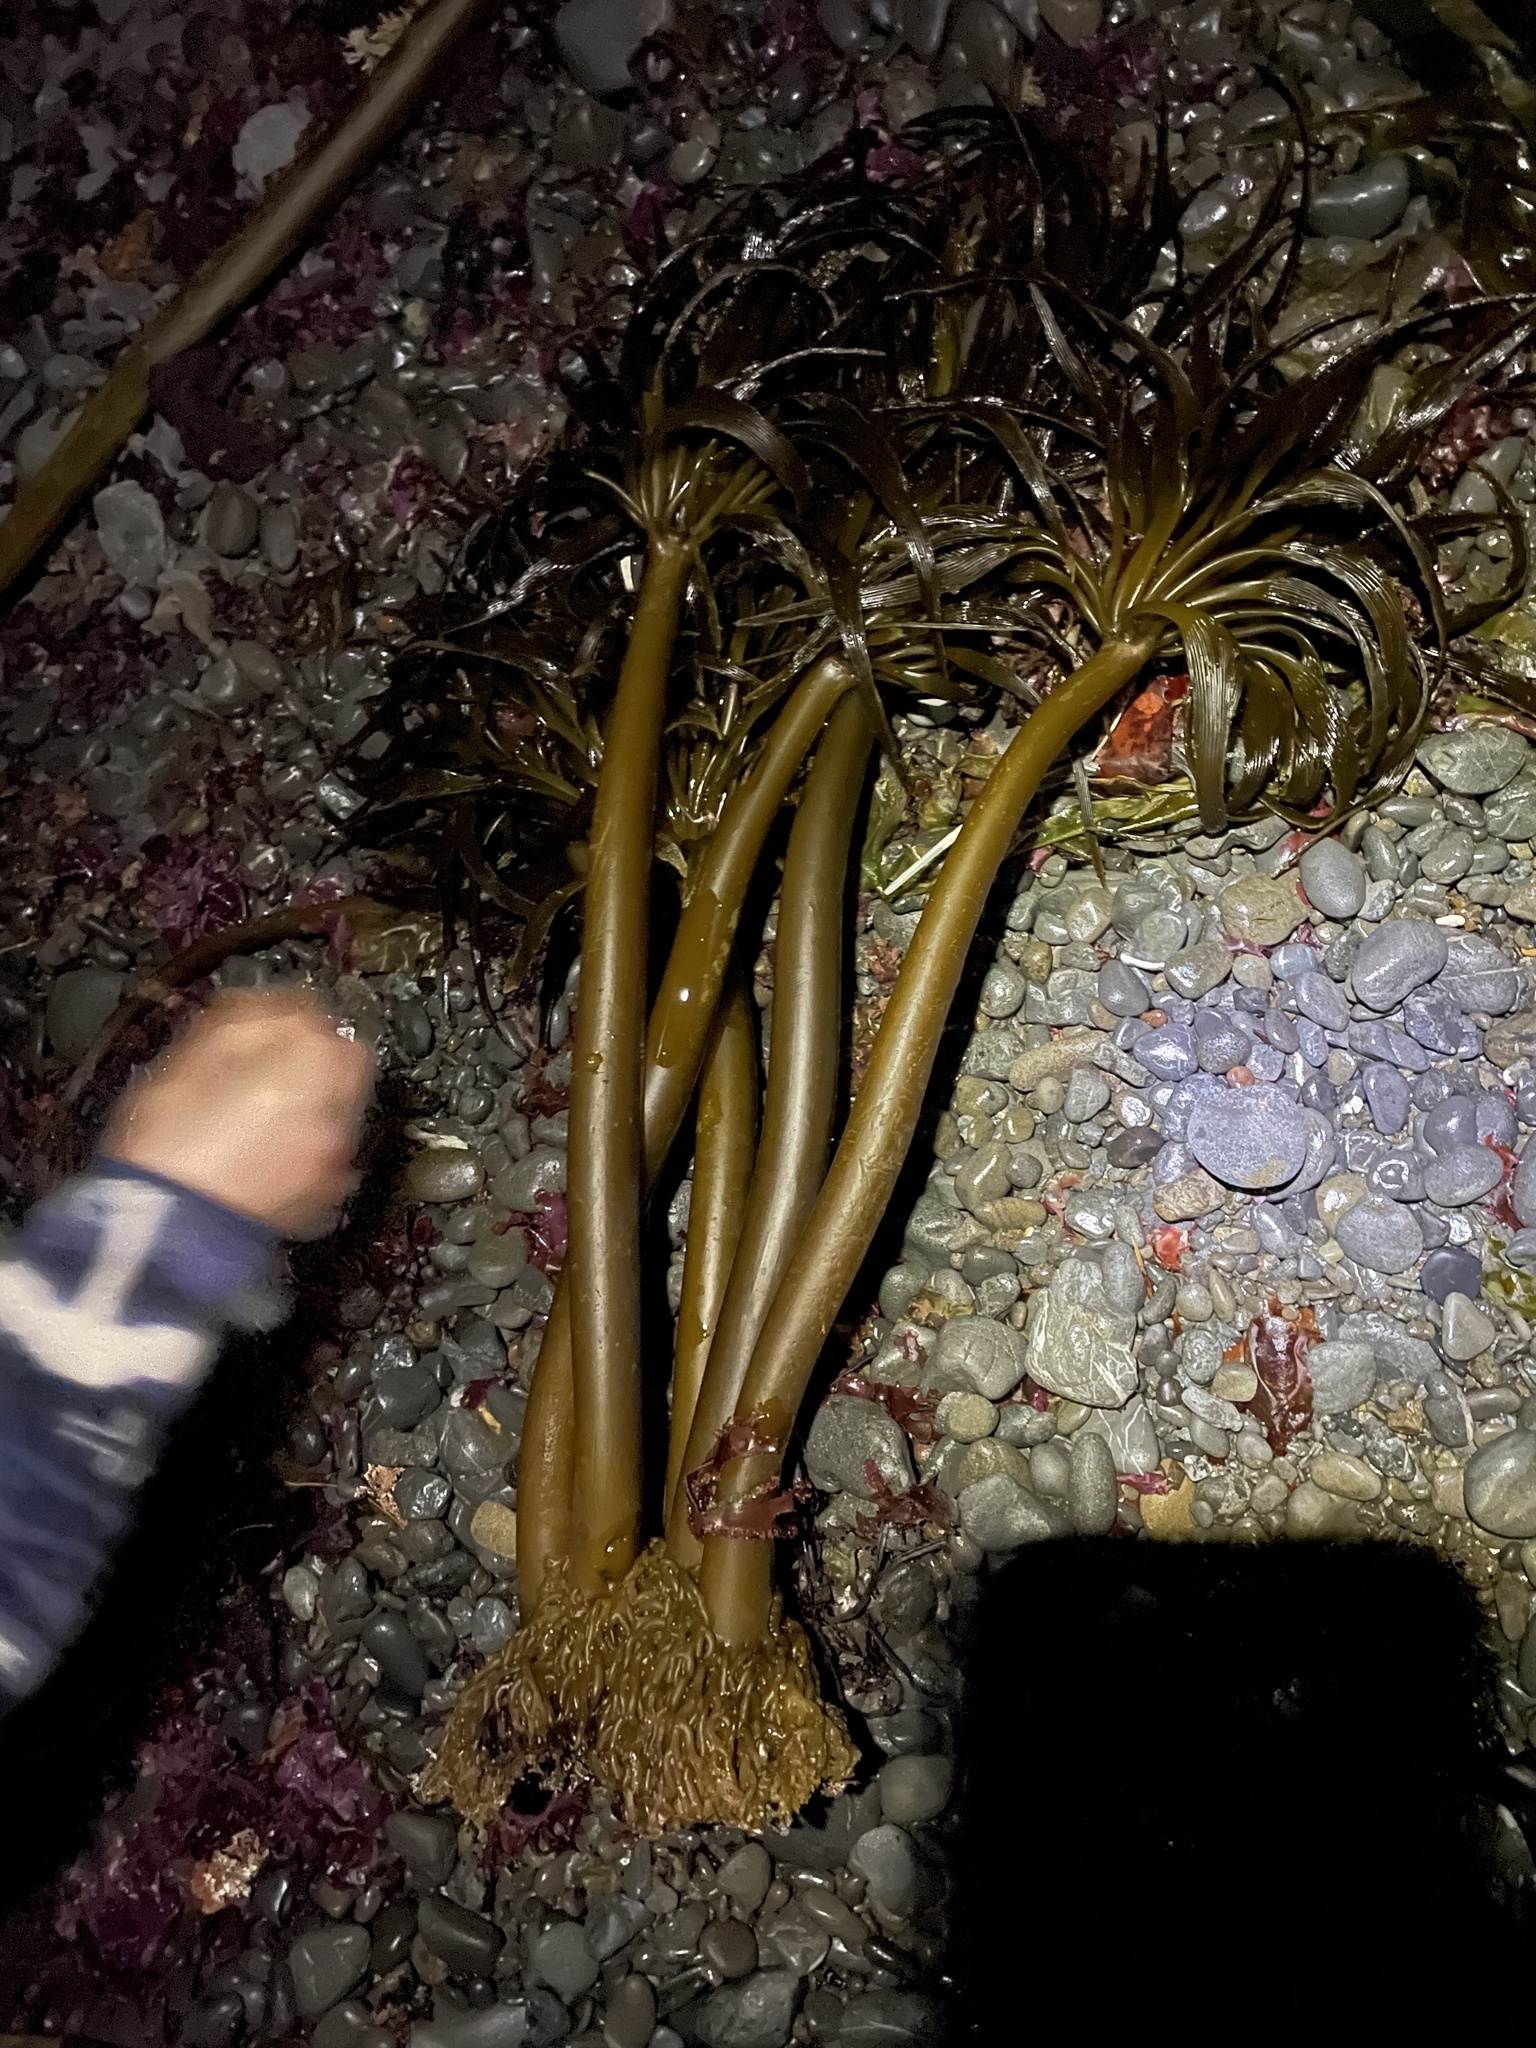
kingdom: Chromista
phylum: Ochrophyta
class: Phaeophyceae
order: Laminariales
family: Laminariaceae
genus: Postelsia
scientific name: Postelsia palmiformis
